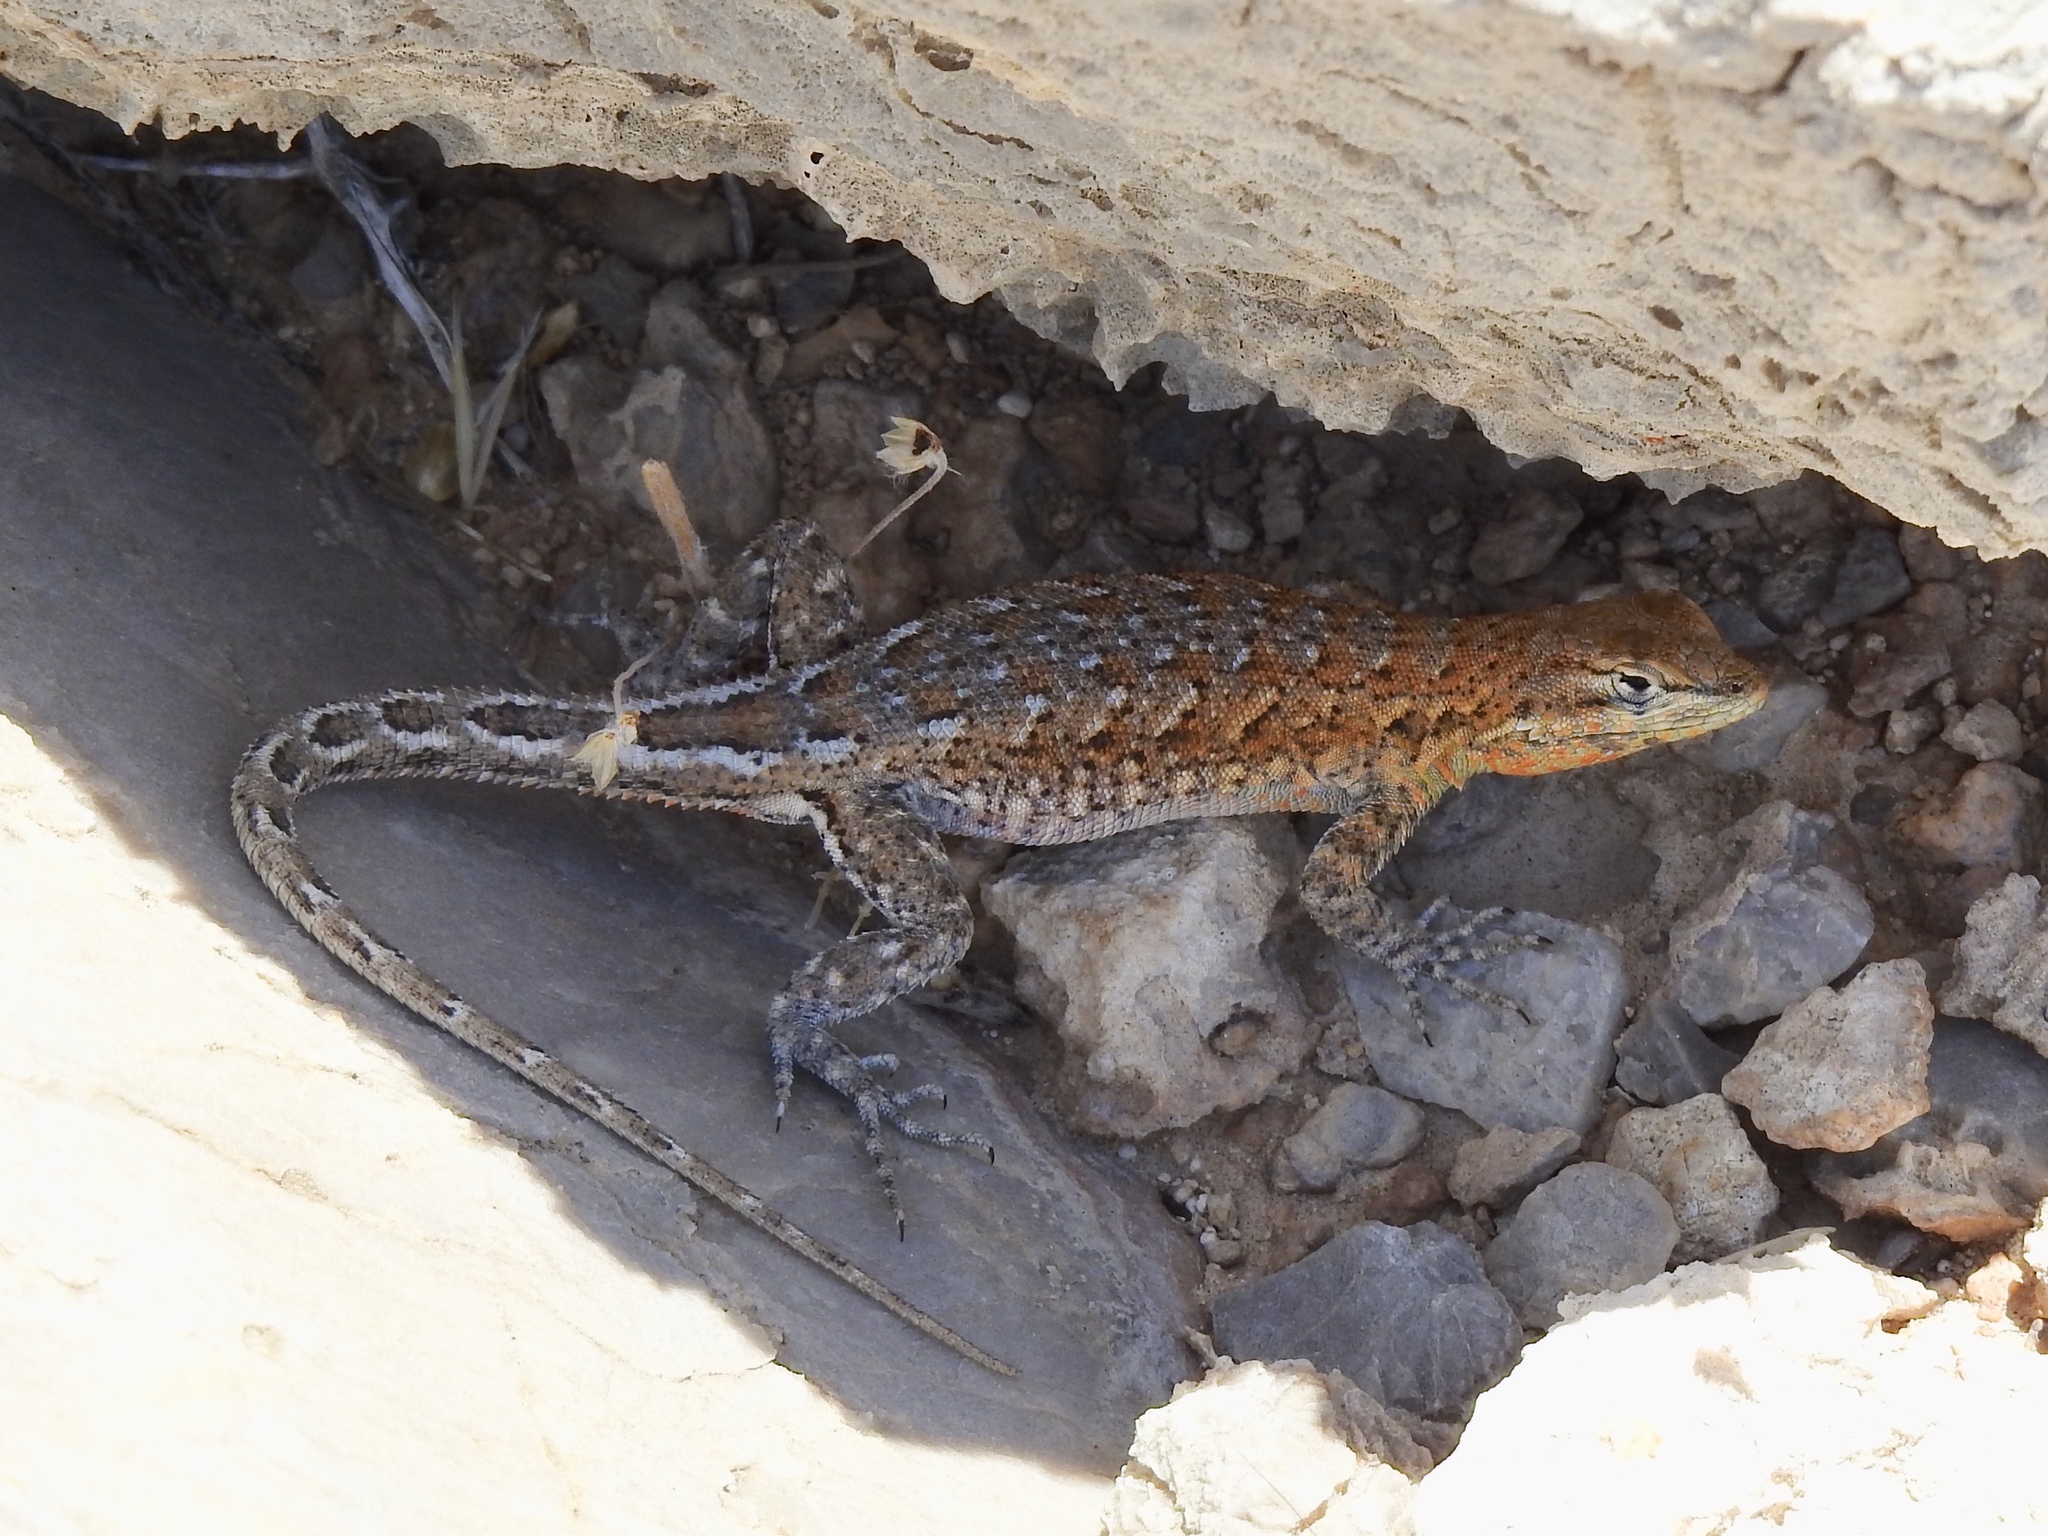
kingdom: Animalia
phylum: Chordata
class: Squamata
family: Phrynosomatidae
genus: Uta
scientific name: Uta stansburiana
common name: Side-blotched lizard
